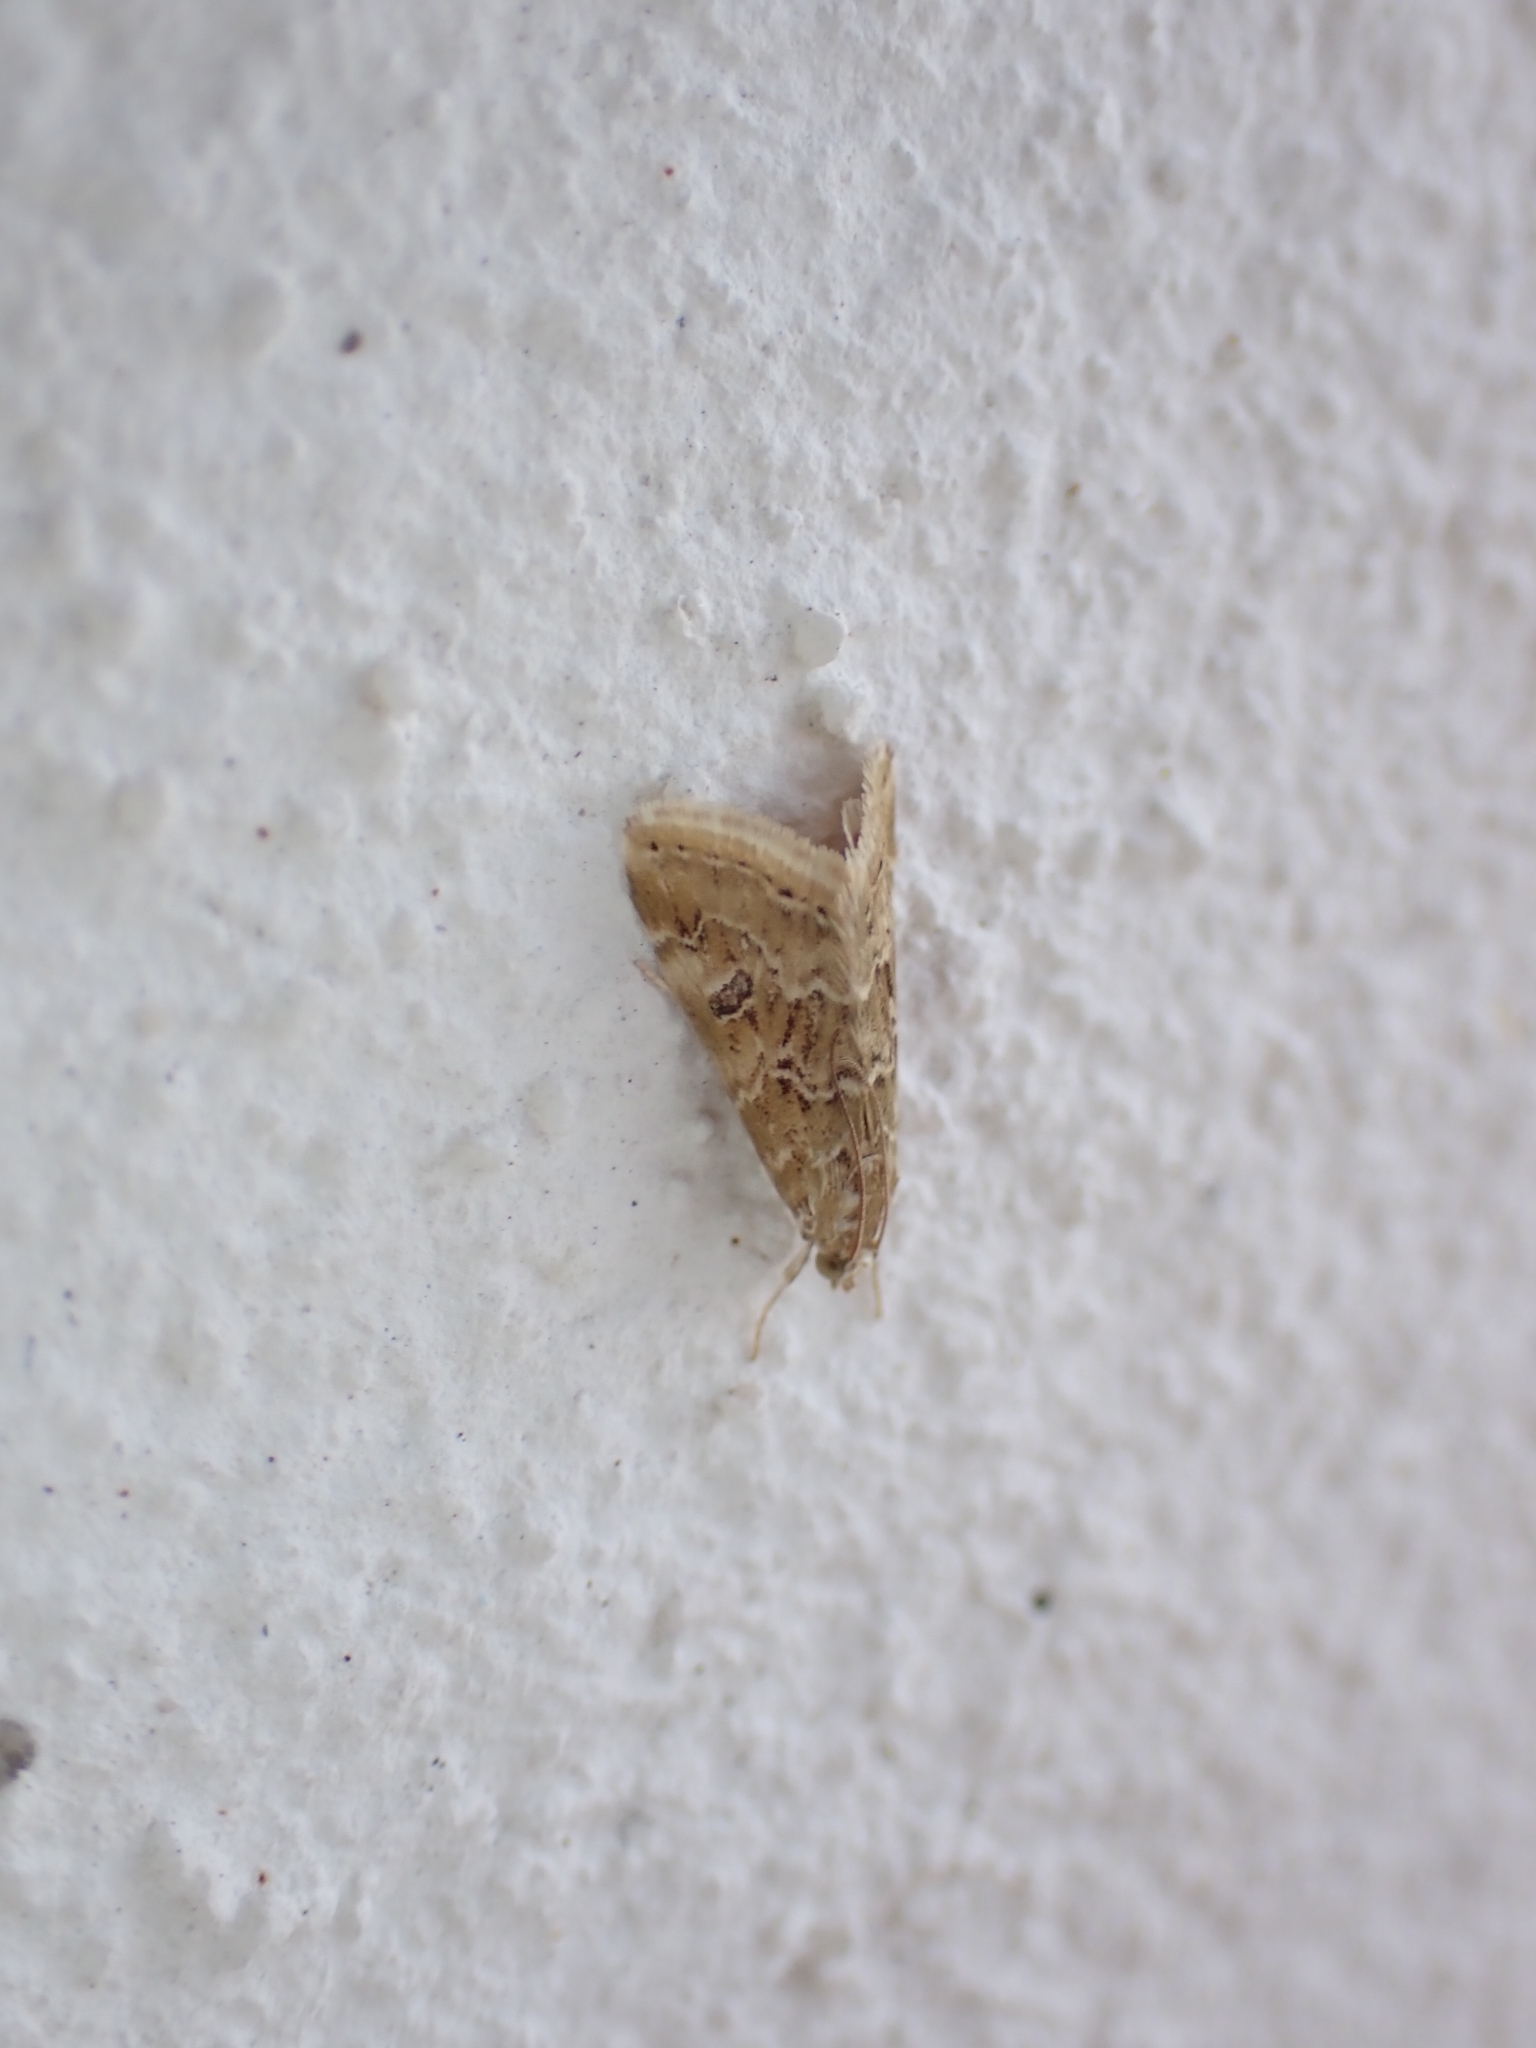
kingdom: Animalia
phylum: Arthropoda
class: Insecta
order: Lepidoptera
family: Crambidae
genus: Hellula
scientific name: Hellula undalis
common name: Cabbage webworm
